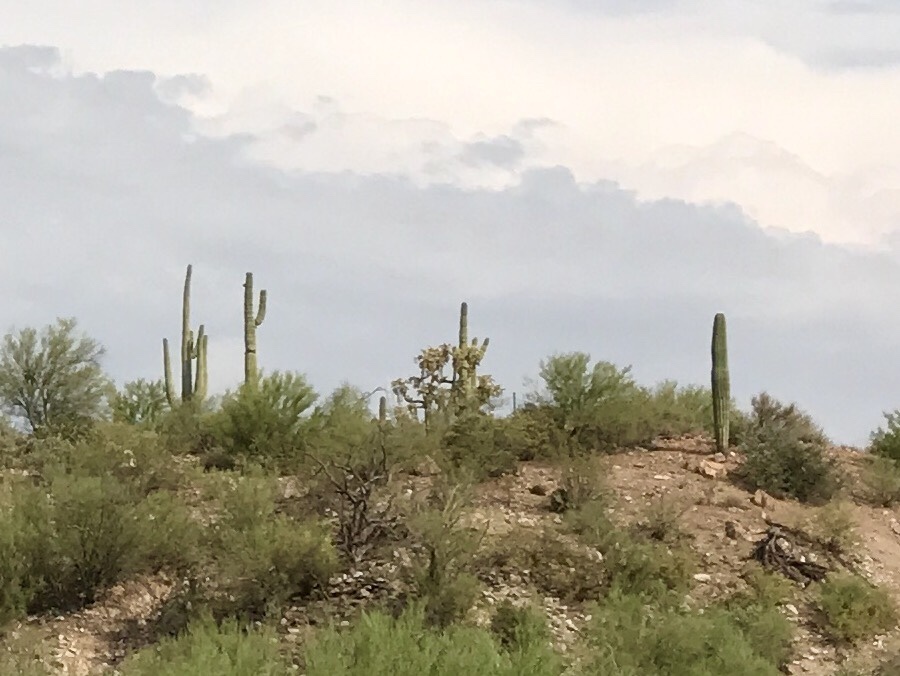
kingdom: Plantae
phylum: Tracheophyta
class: Magnoliopsida
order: Caryophyllales
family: Cactaceae
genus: Carnegiea
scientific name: Carnegiea gigantea
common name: Saguaro
